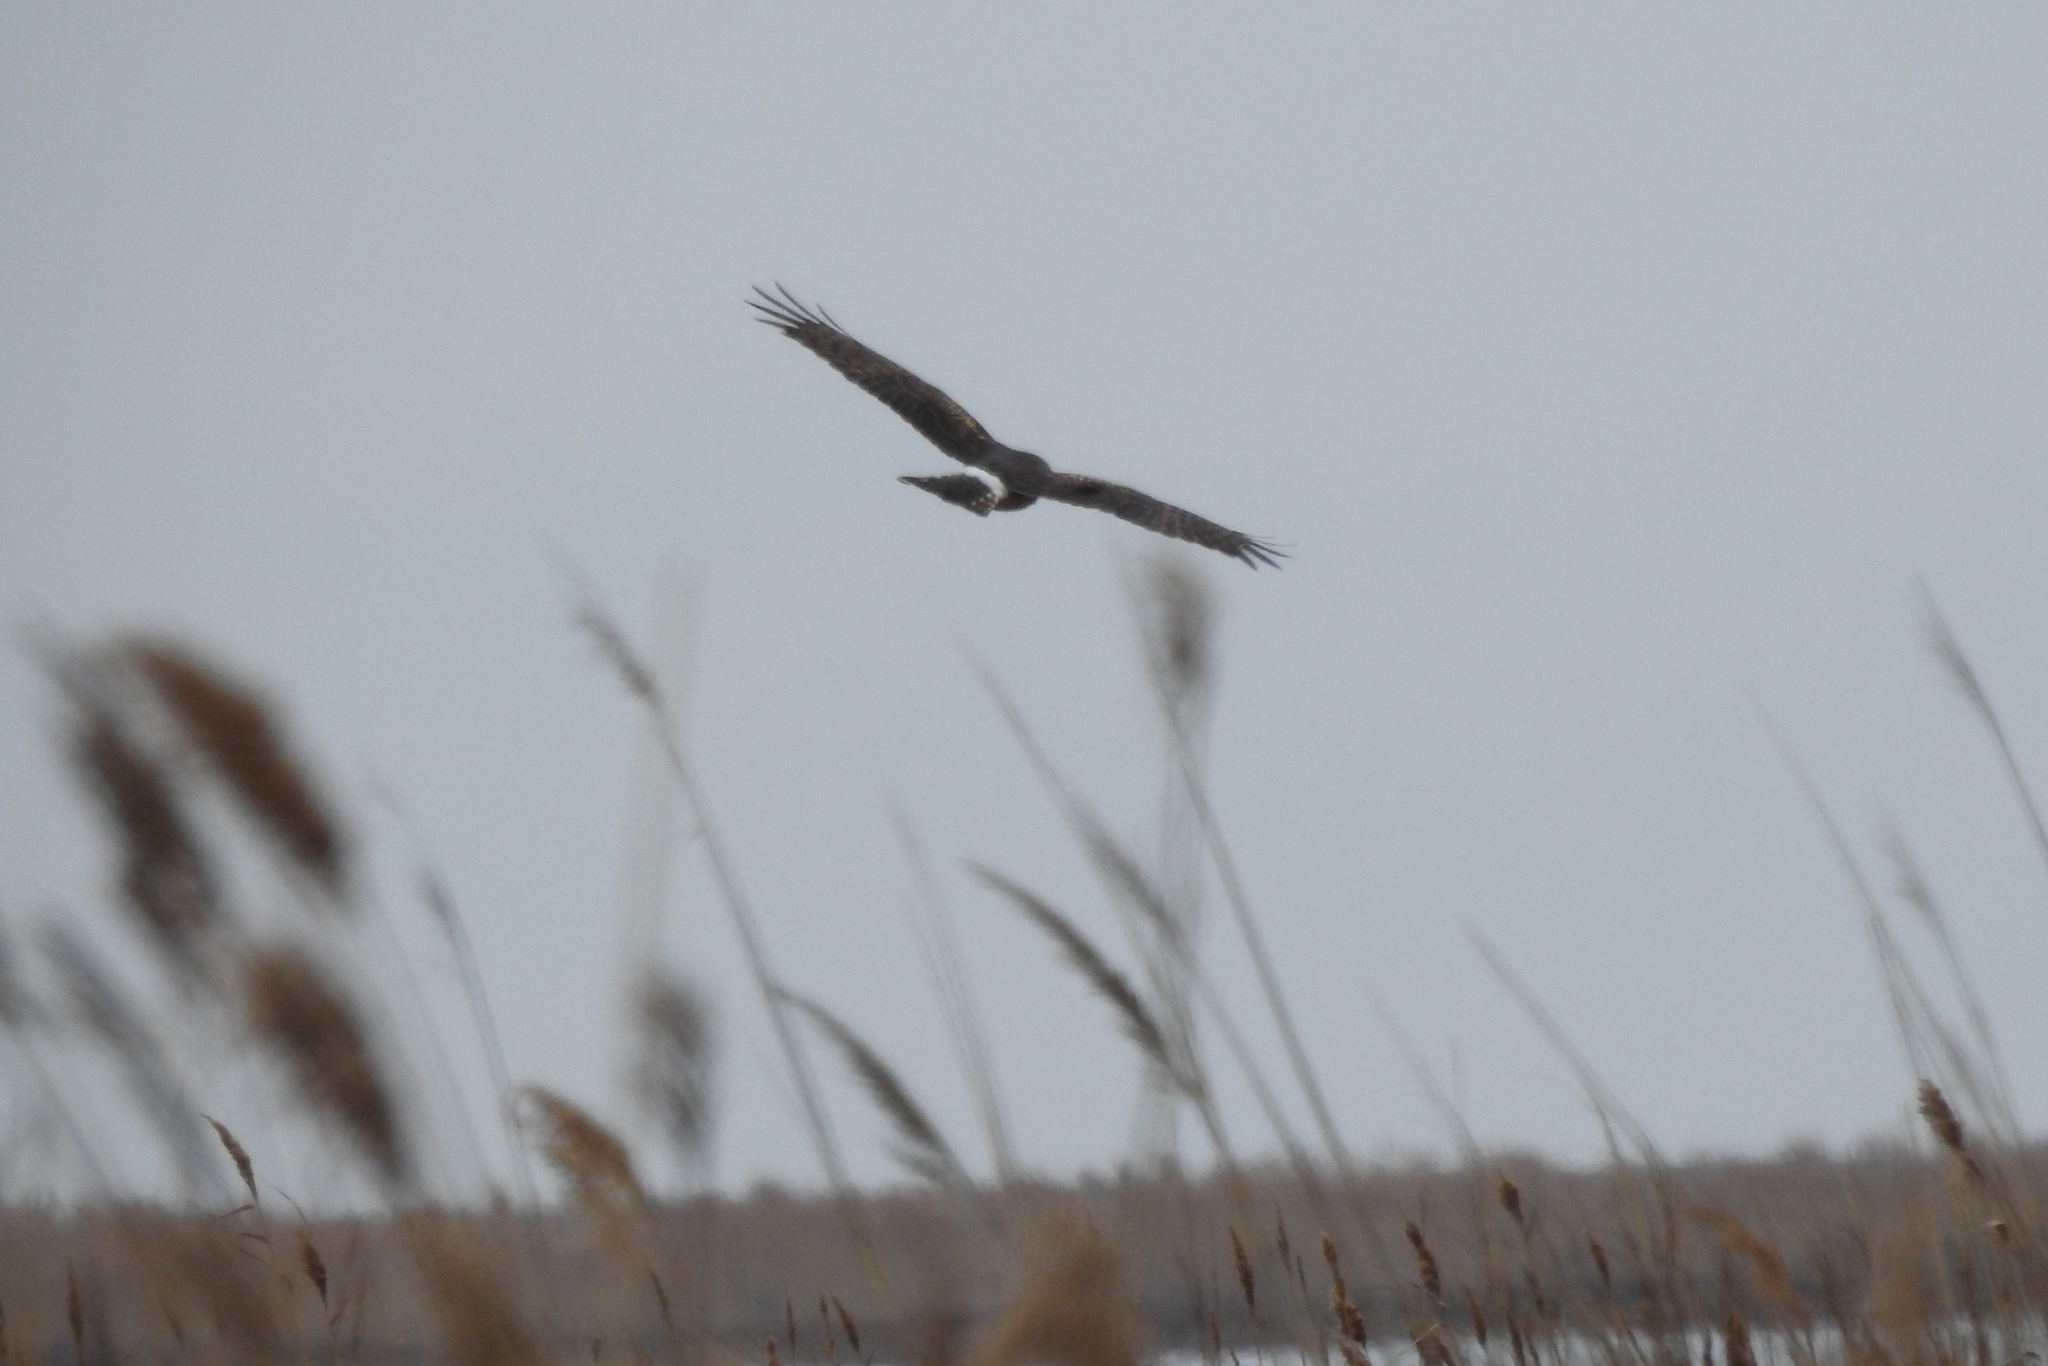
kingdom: Animalia
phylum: Chordata
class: Aves
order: Accipitriformes
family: Accipitridae
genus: Circus
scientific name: Circus cyaneus
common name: Hen harrier
